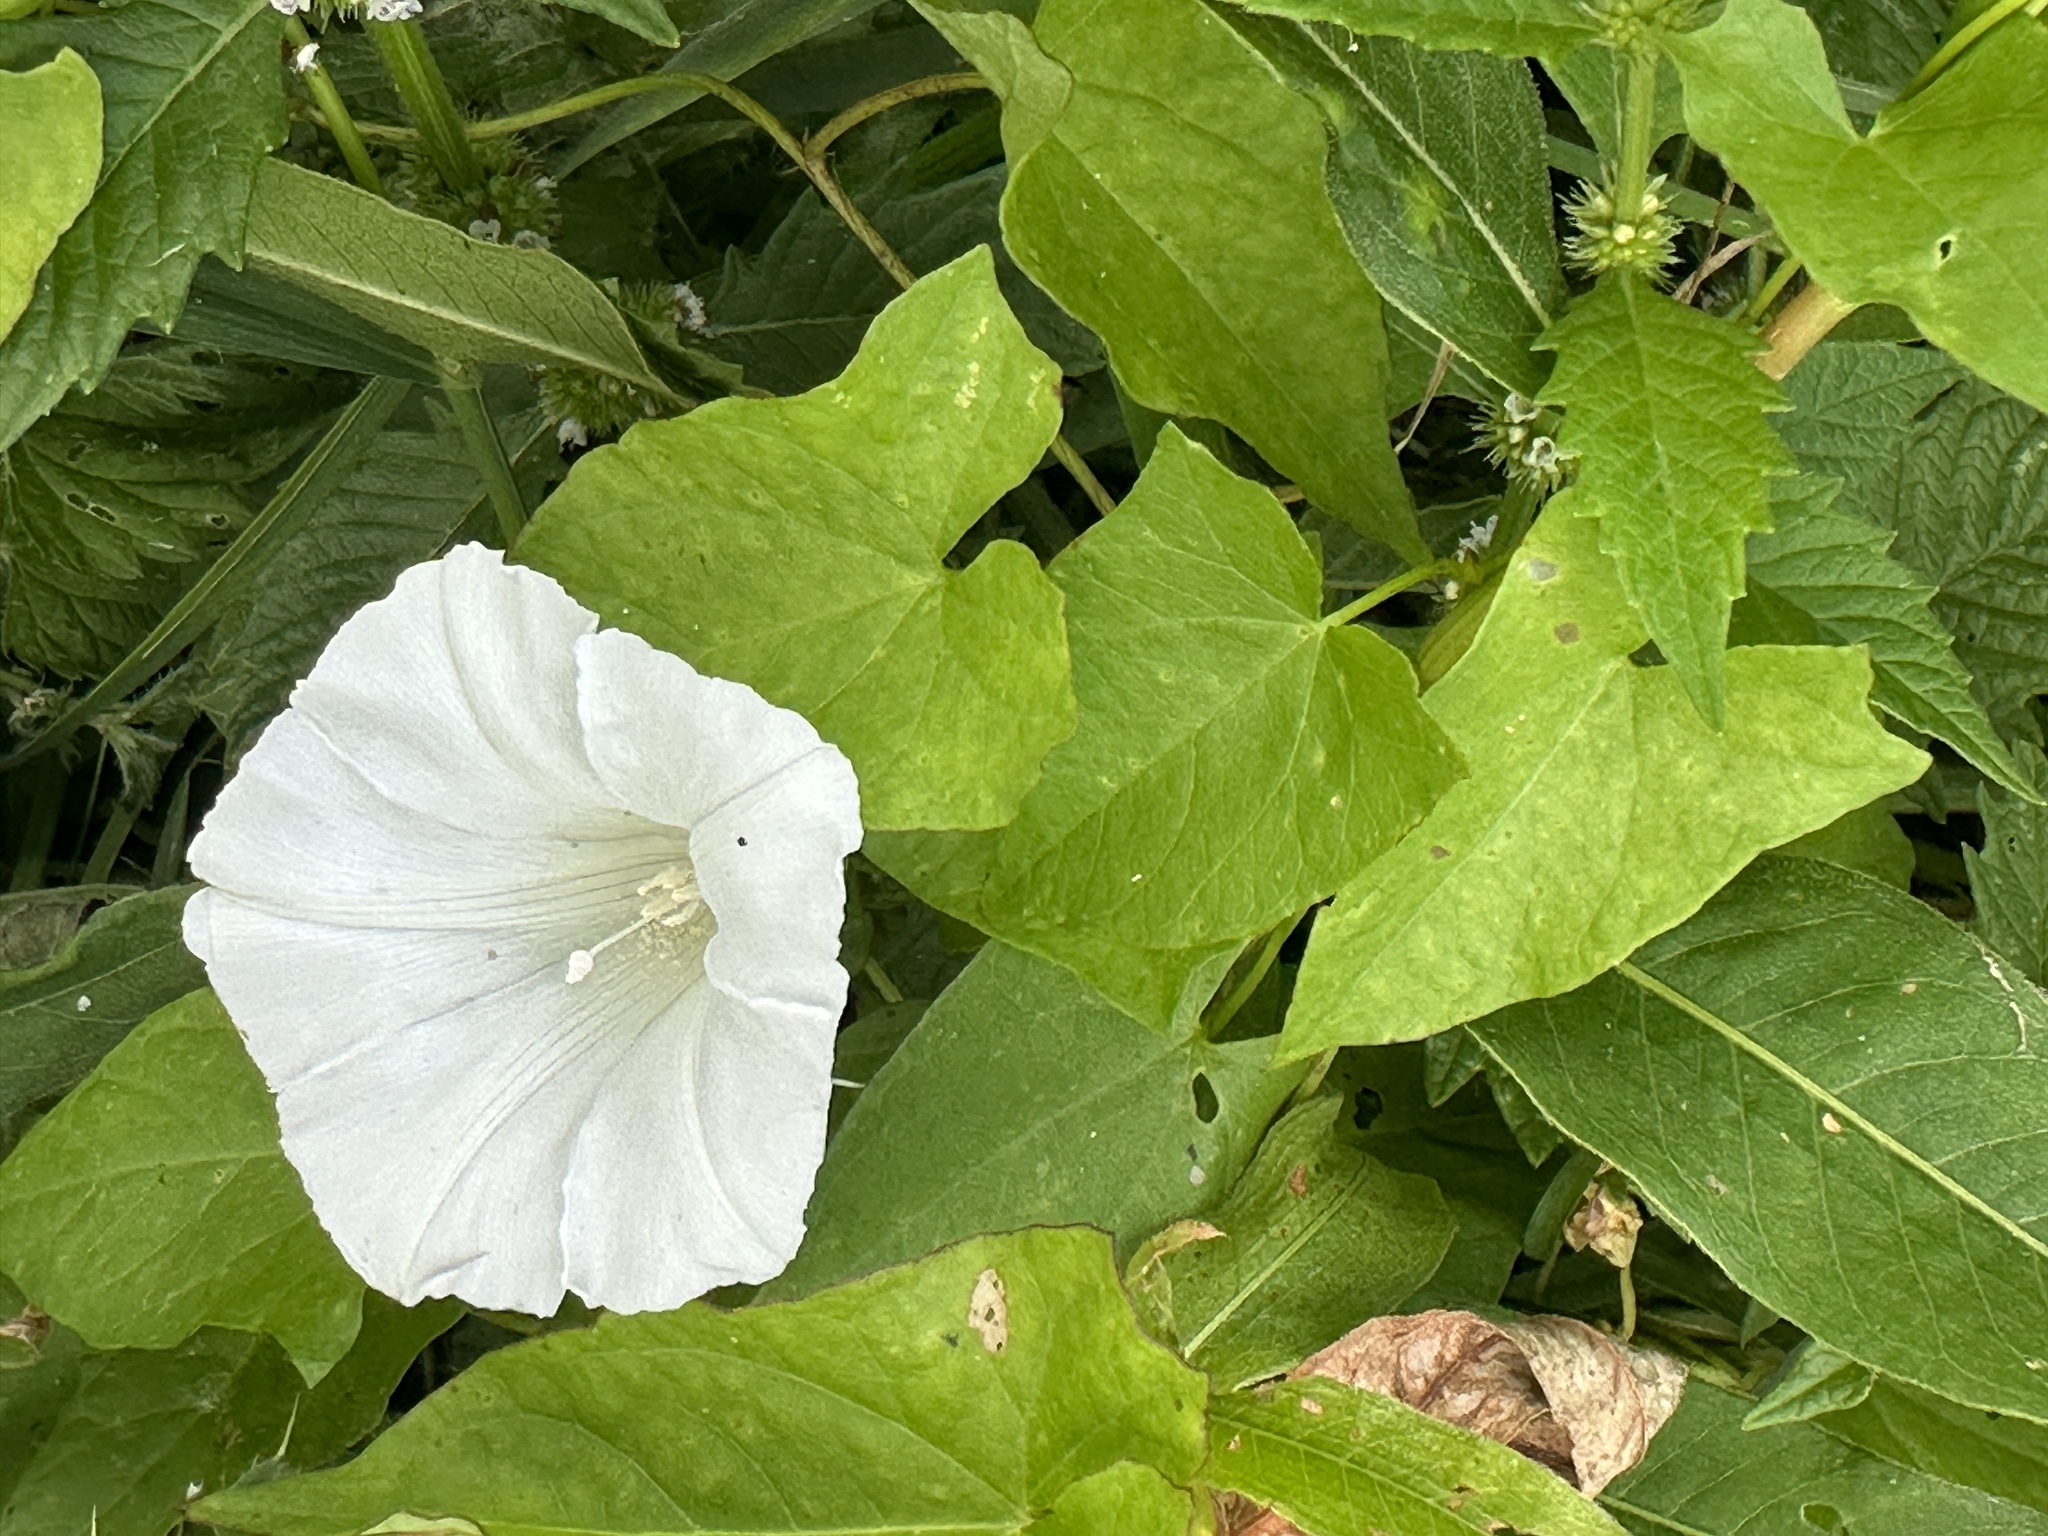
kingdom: Plantae
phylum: Tracheophyta
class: Magnoliopsida
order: Solanales
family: Convolvulaceae
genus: Calystegia
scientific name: Calystegia
